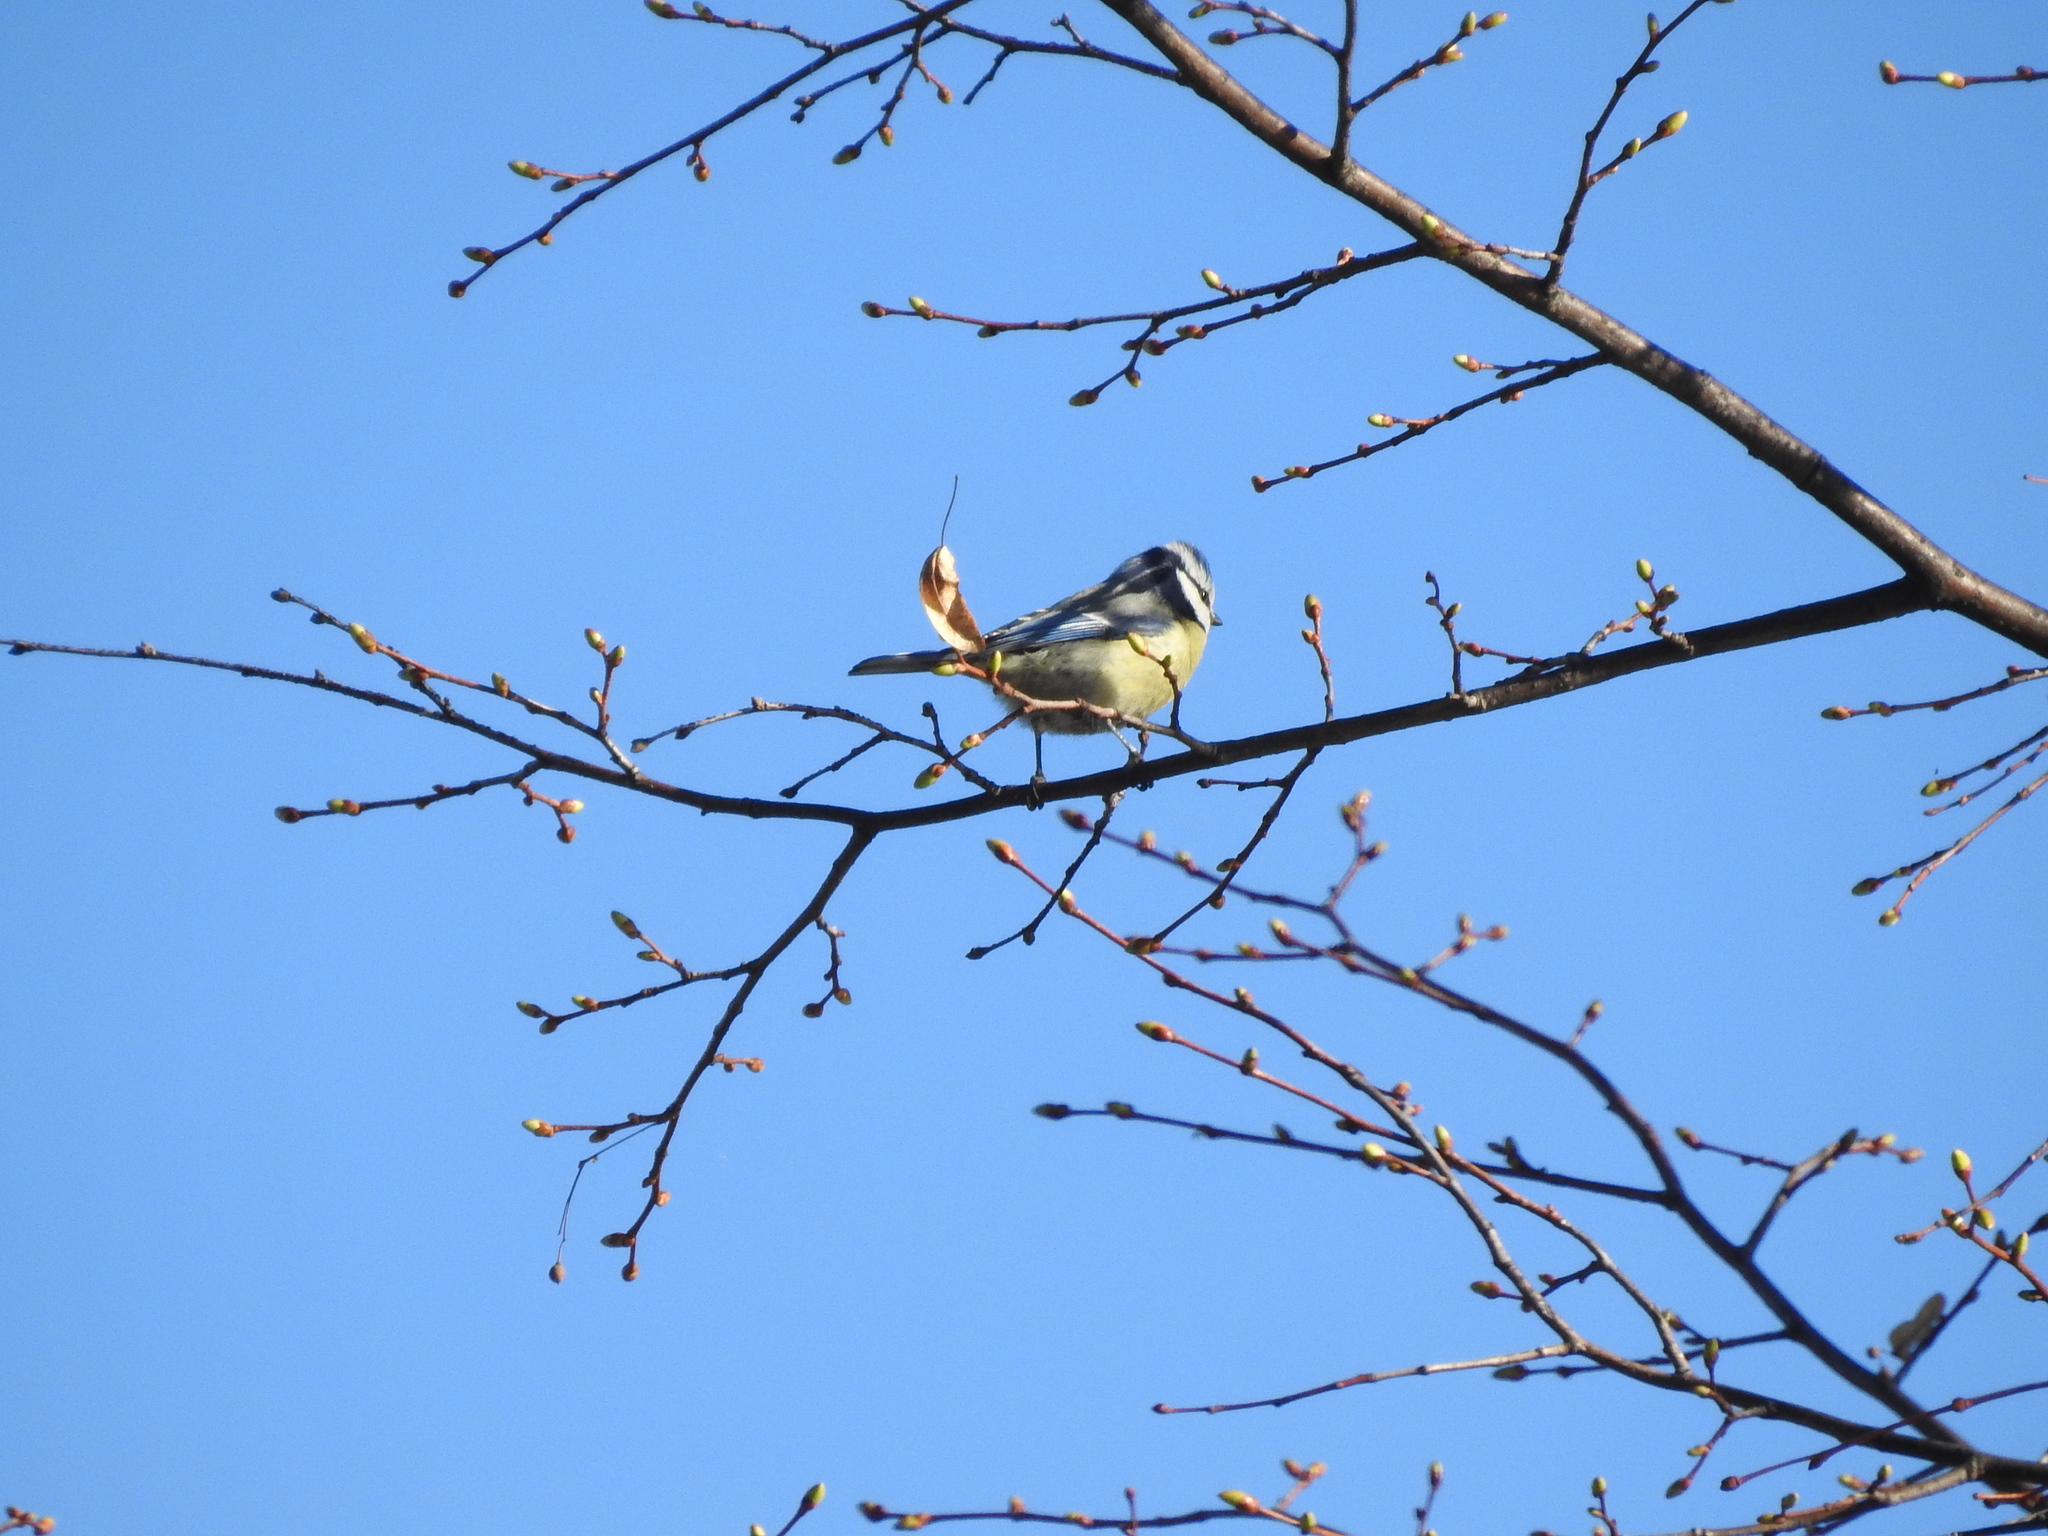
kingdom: Animalia
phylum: Chordata
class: Aves
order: Passeriformes
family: Paridae
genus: Cyanistes
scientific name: Cyanistes caeruleus
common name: Eurasian blue tit
